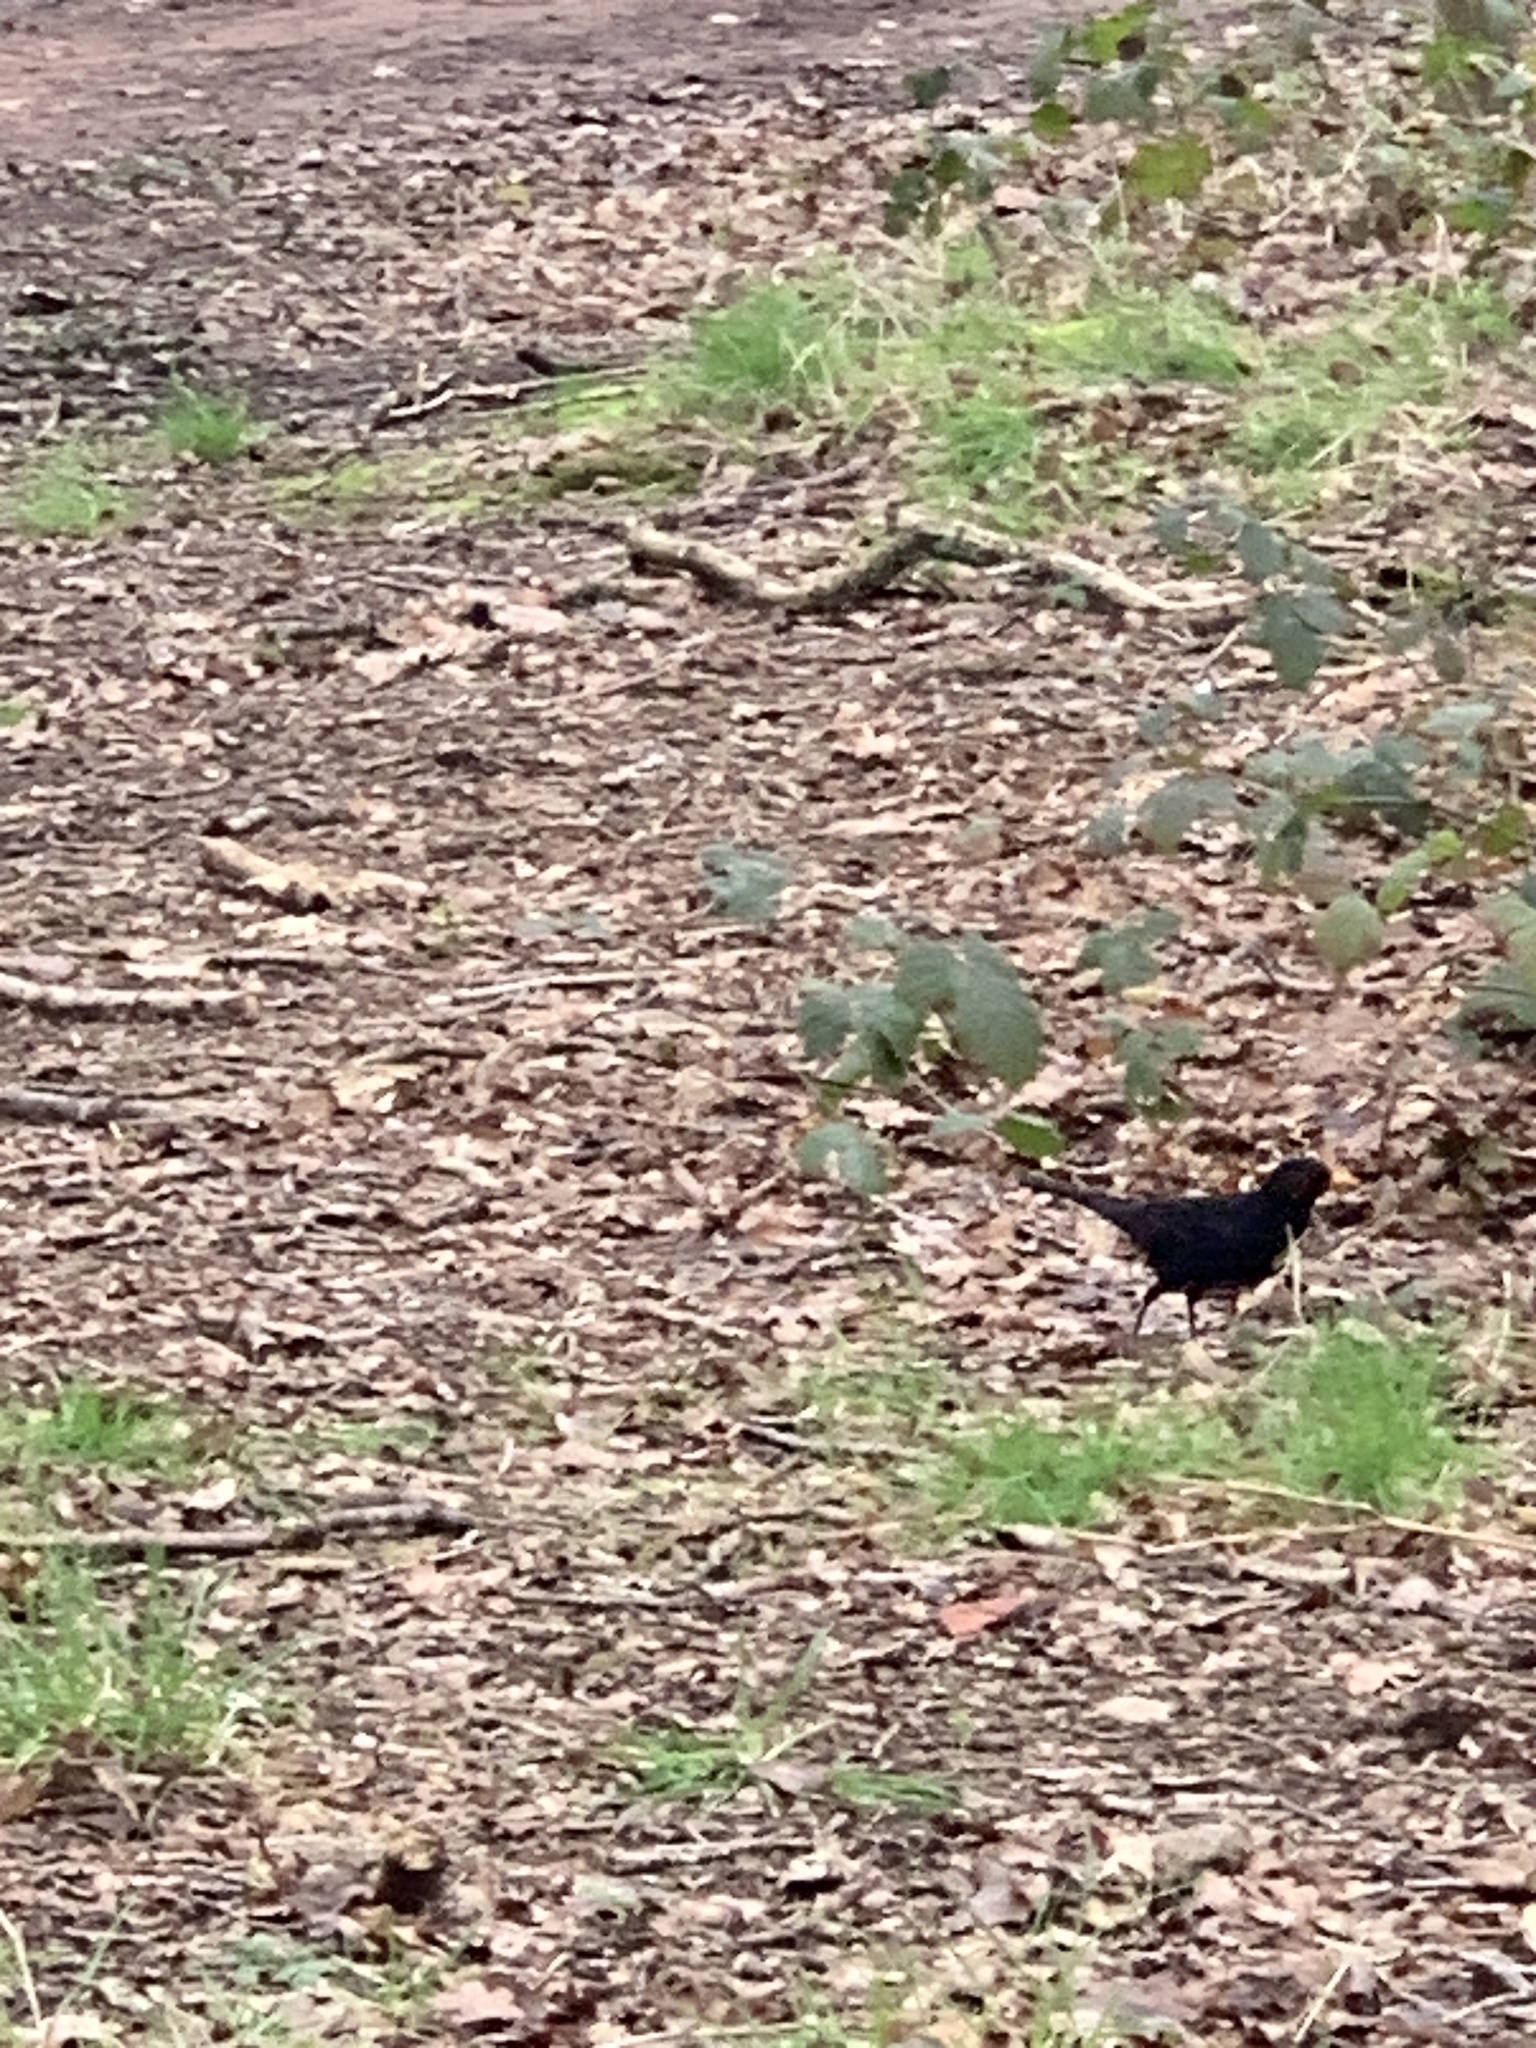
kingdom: Animalia
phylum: Chordata
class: Aves
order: Passeriformes
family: Turdidae
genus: Turdus
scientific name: Turdus merula
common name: Common blackbird
